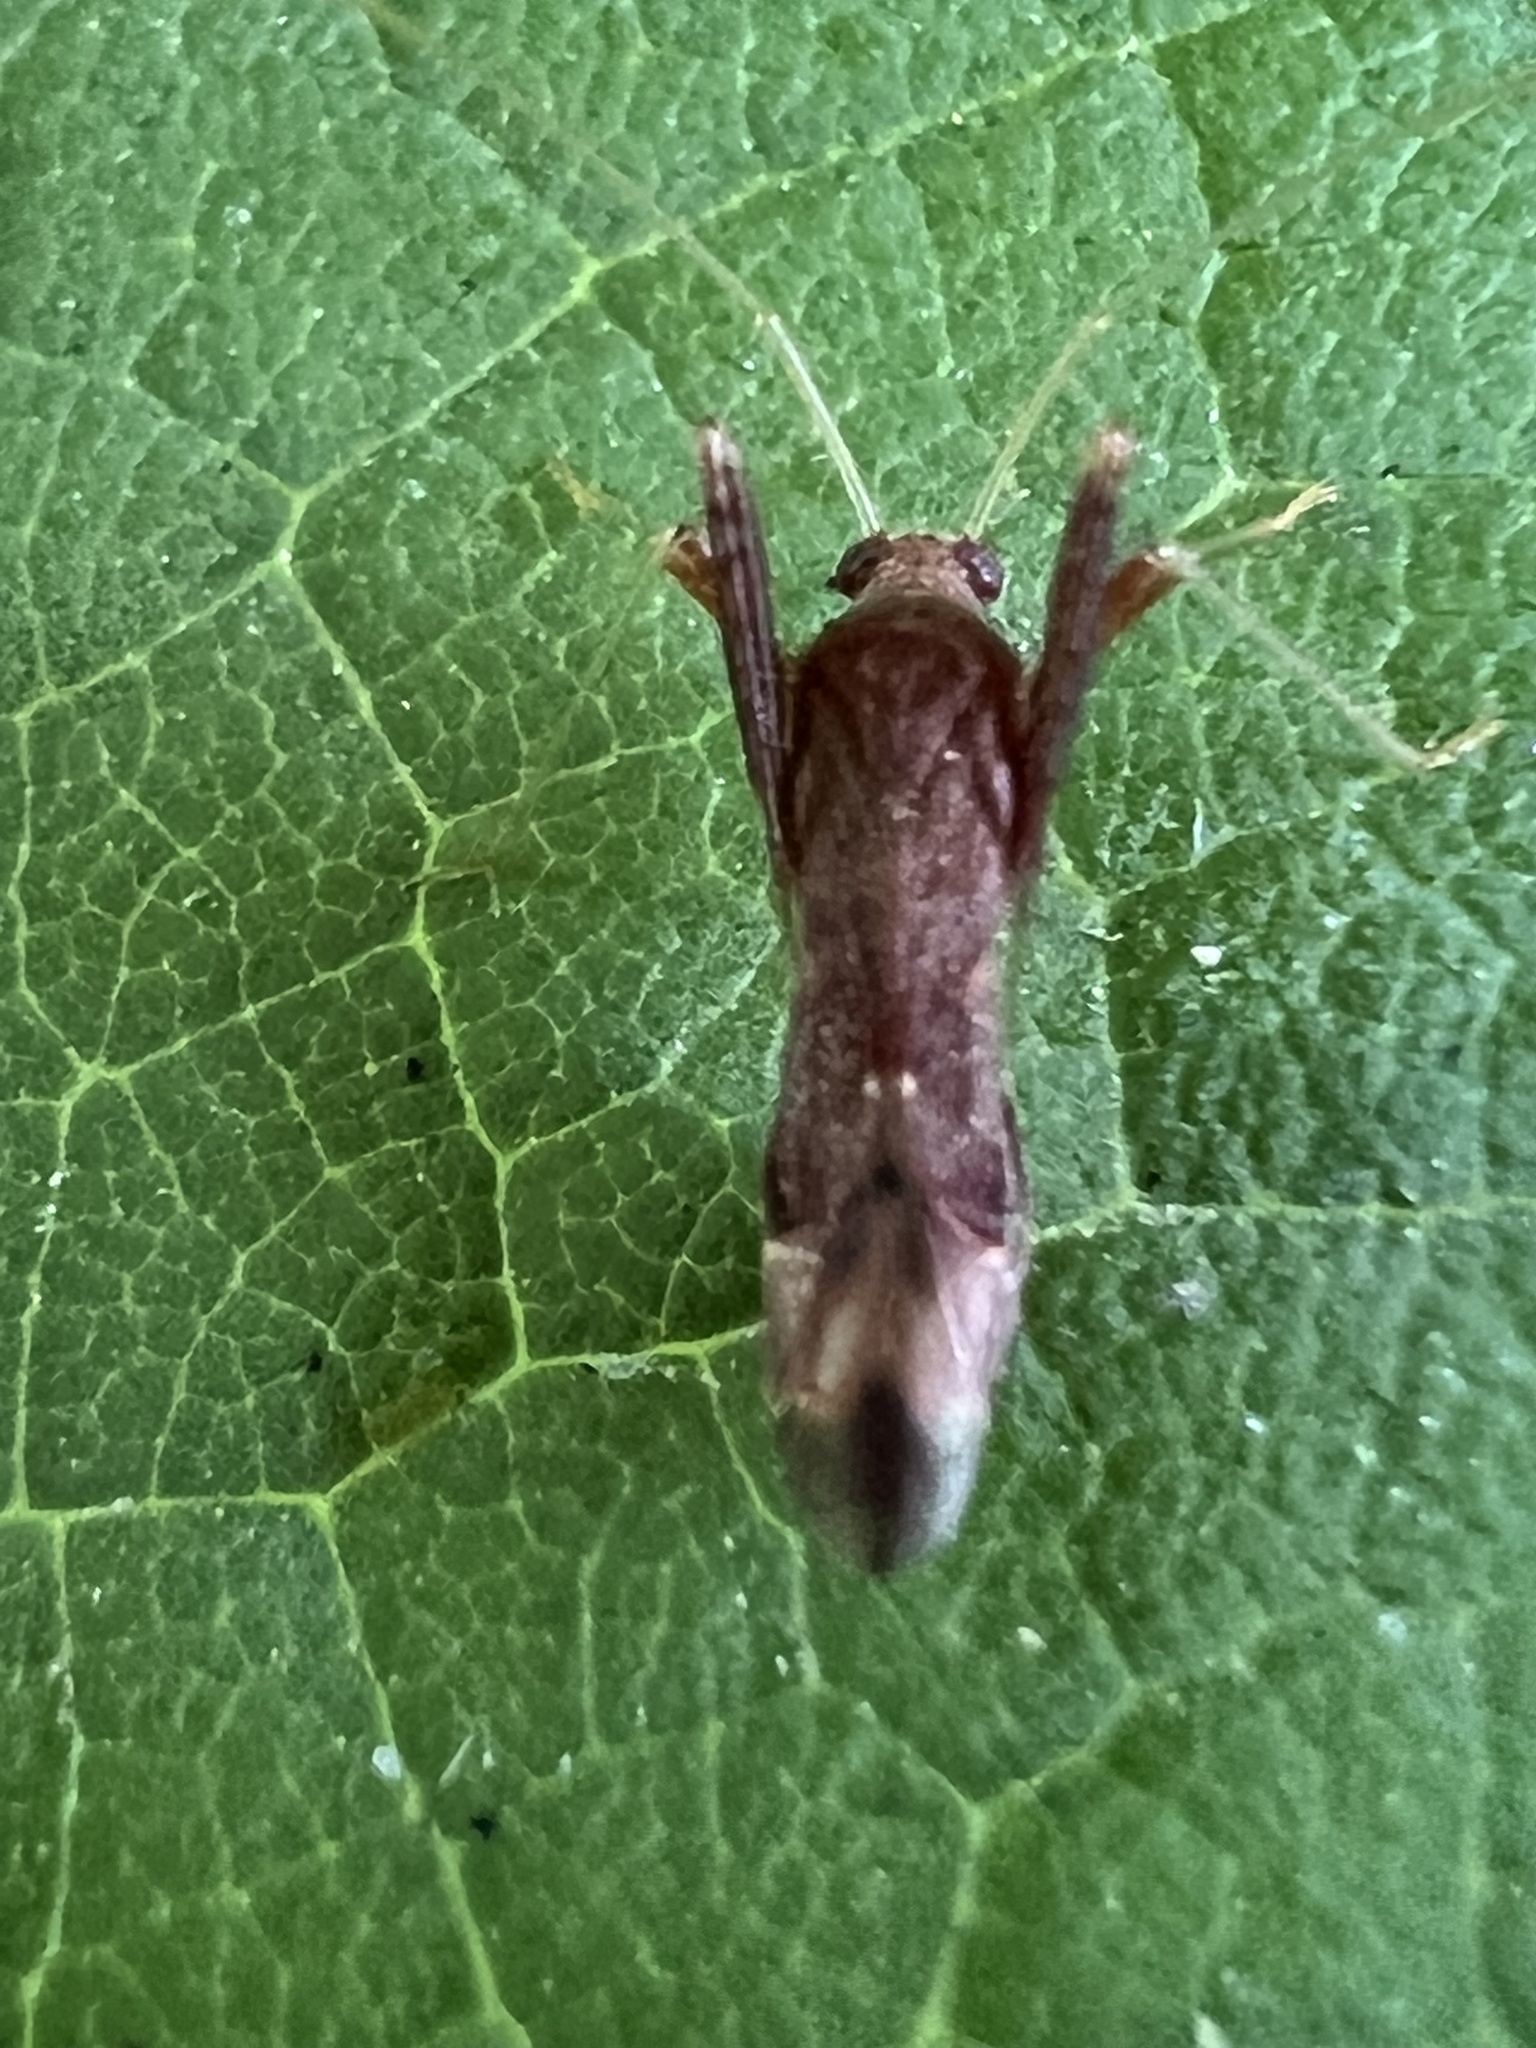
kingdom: Animalia
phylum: Arthropoda
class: Insecta
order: Hemiptera
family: Miridae
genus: Paraxenetus
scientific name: Paraxenetus guttulatus
